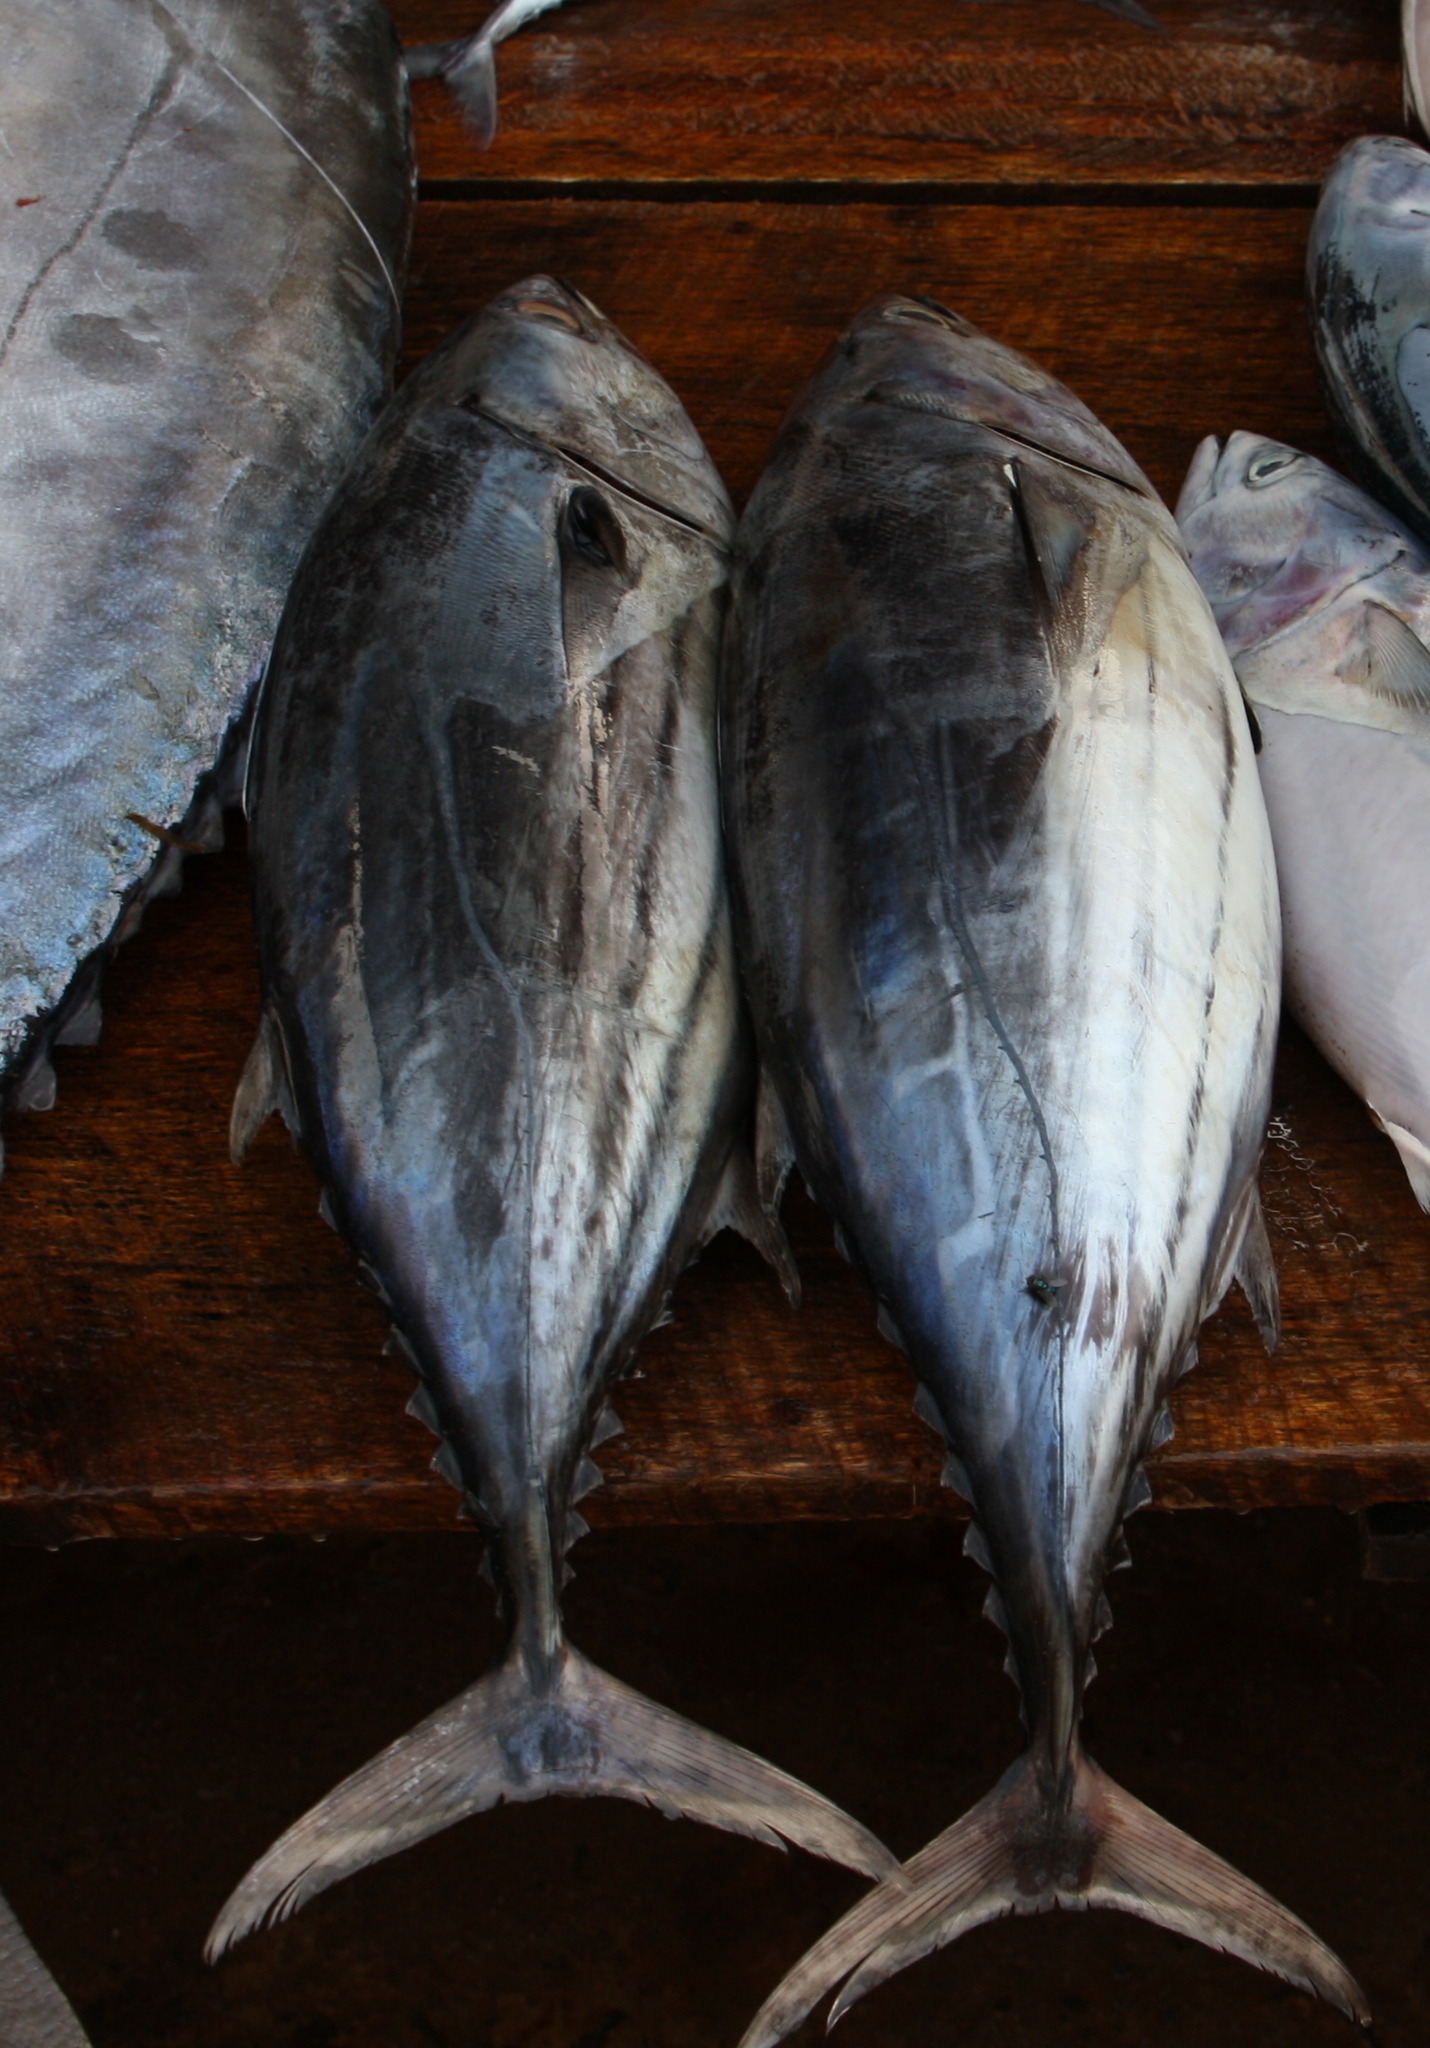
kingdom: Animalia
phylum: Chordata
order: Perciformes
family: Scombridae
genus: Katsuwonus
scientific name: Katsuwonus pelamis
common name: Skipjack tuna
